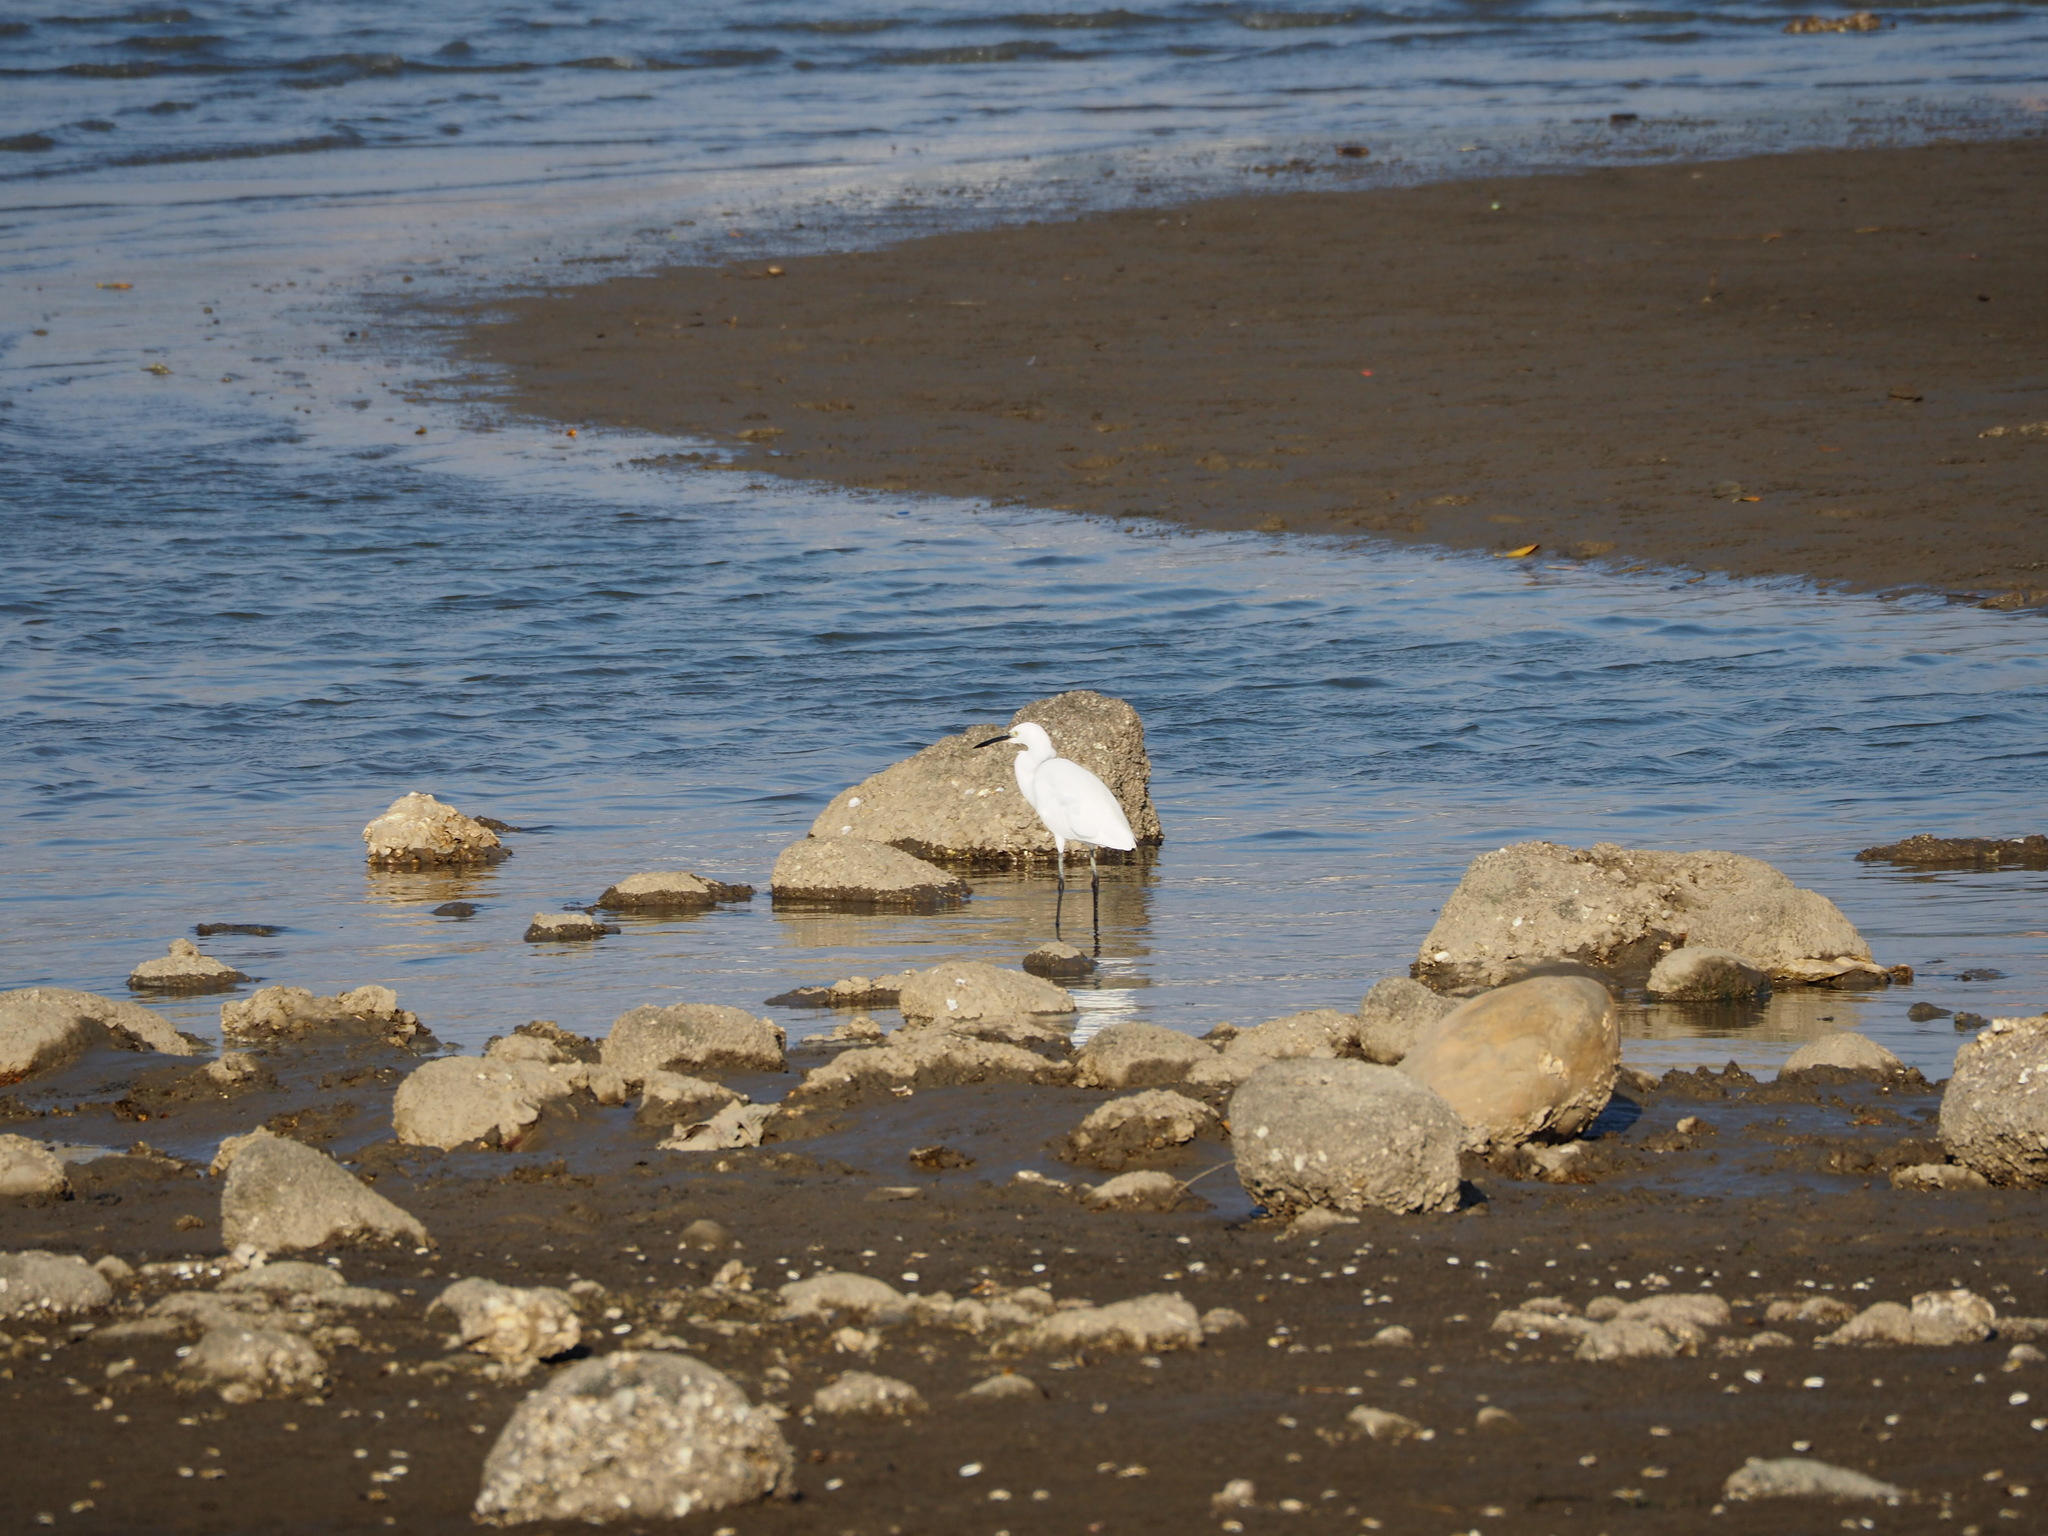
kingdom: Animalia
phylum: Chordata
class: Aves
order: Pelecaniformes
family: Ardeidae
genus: Egretta
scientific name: Egretta garzetta
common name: Little egret
